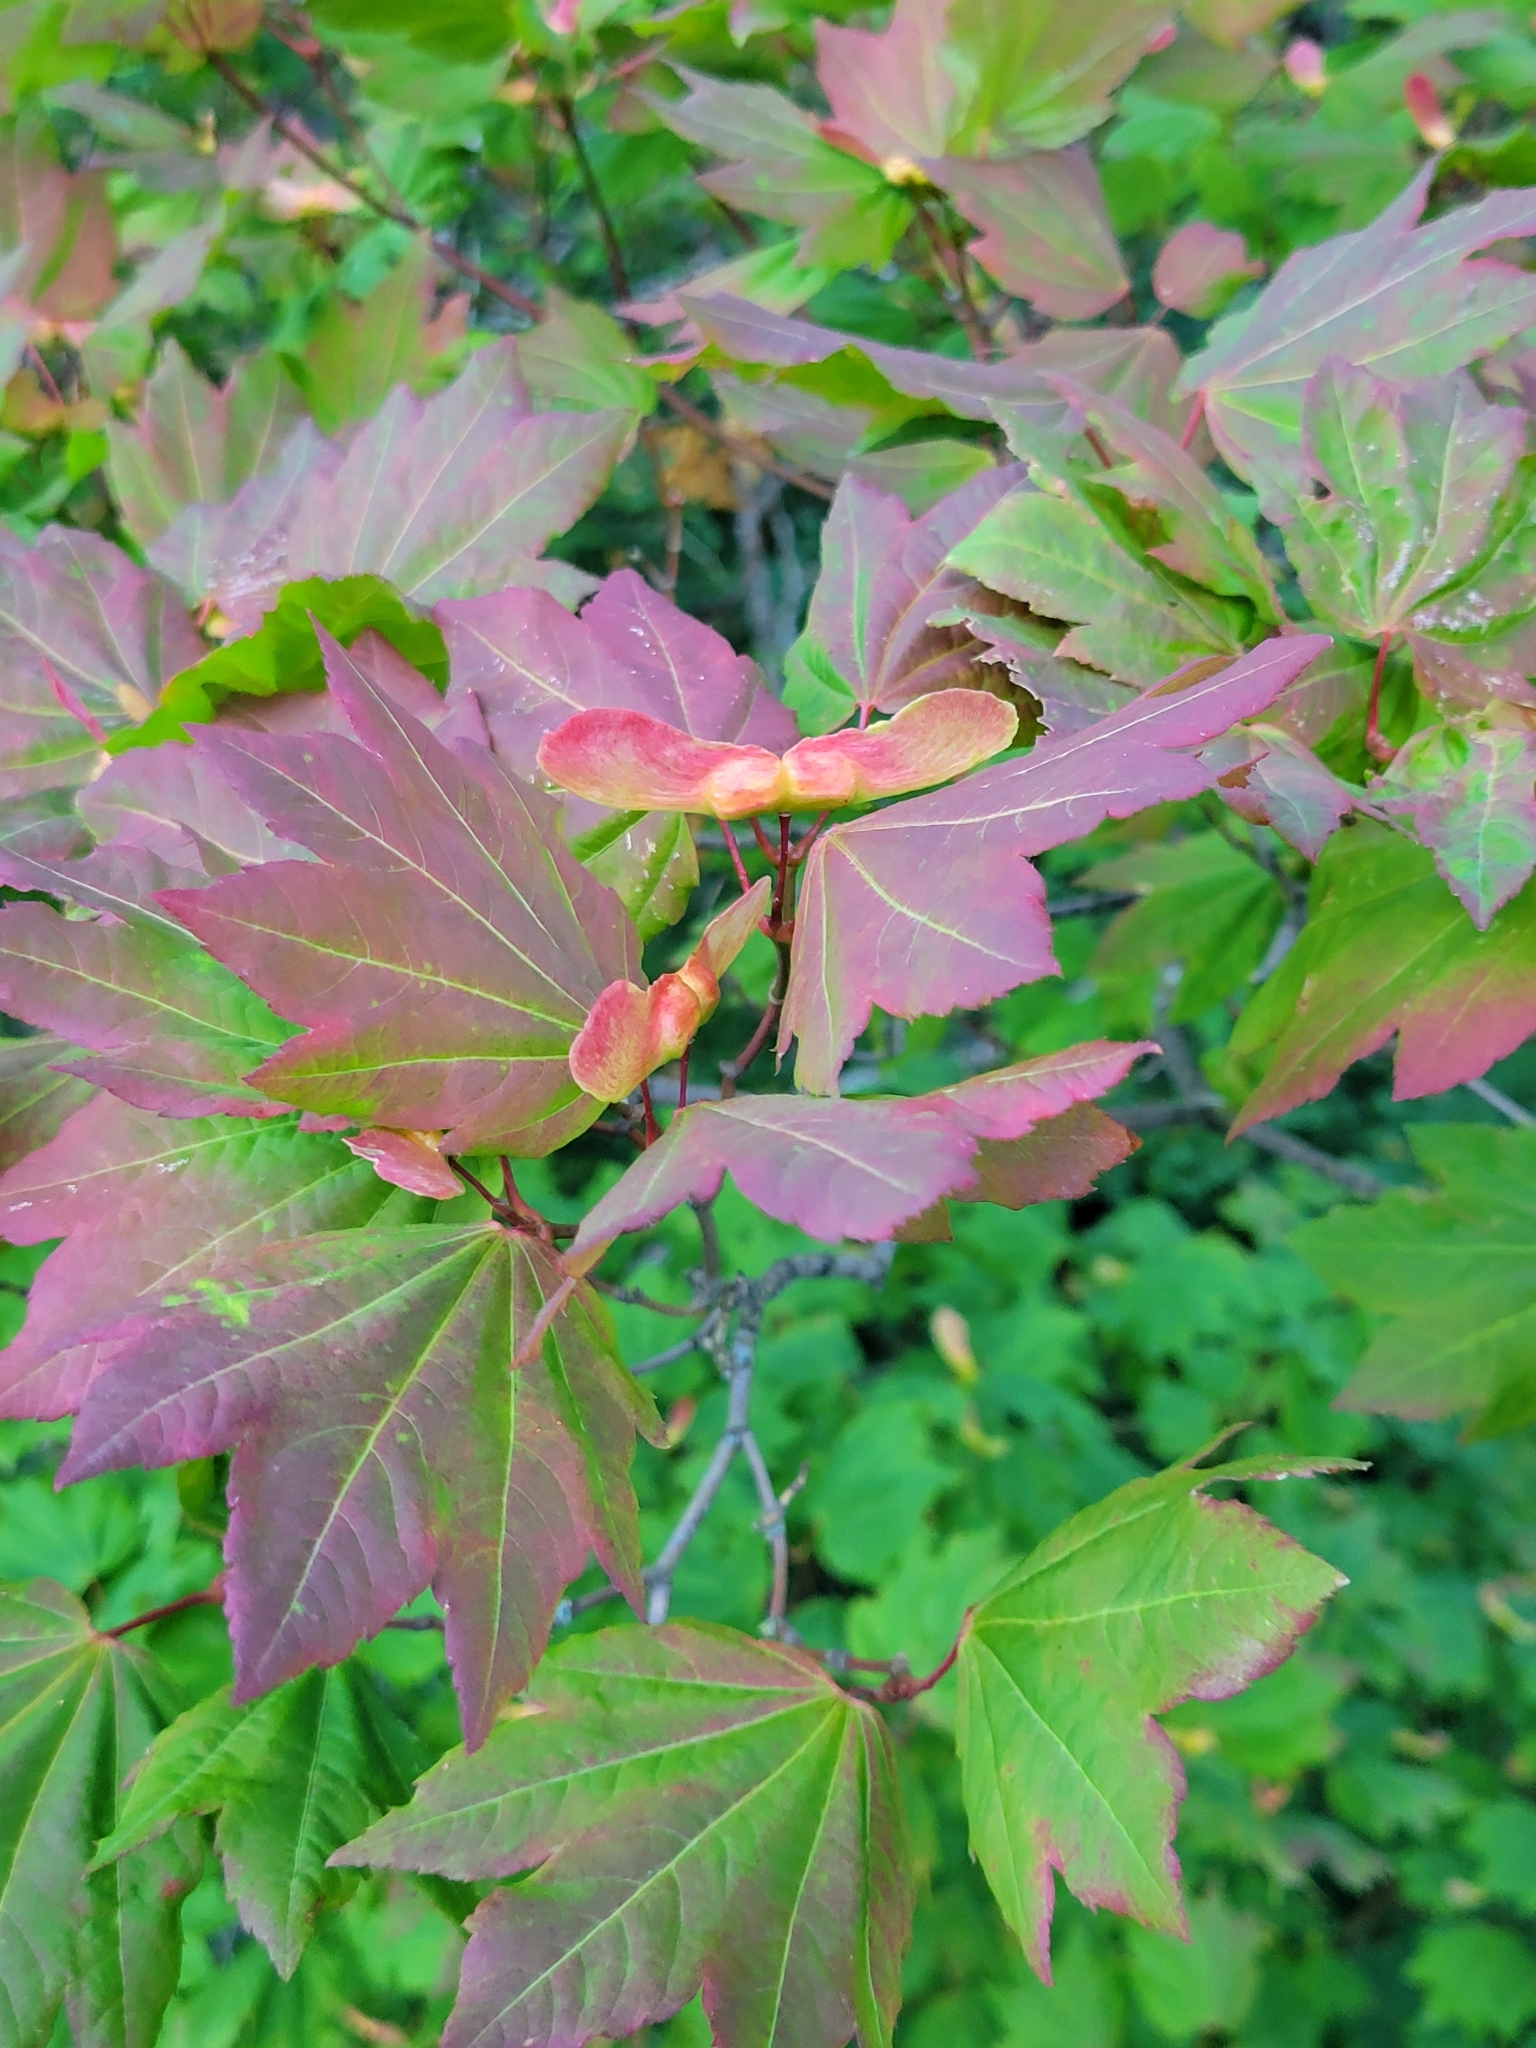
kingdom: Plantae
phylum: Tracheophyta
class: Magnoliopsida
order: Sapindales
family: Sapindaceae
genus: Acer
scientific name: Acer circinatum
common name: Vine maple
